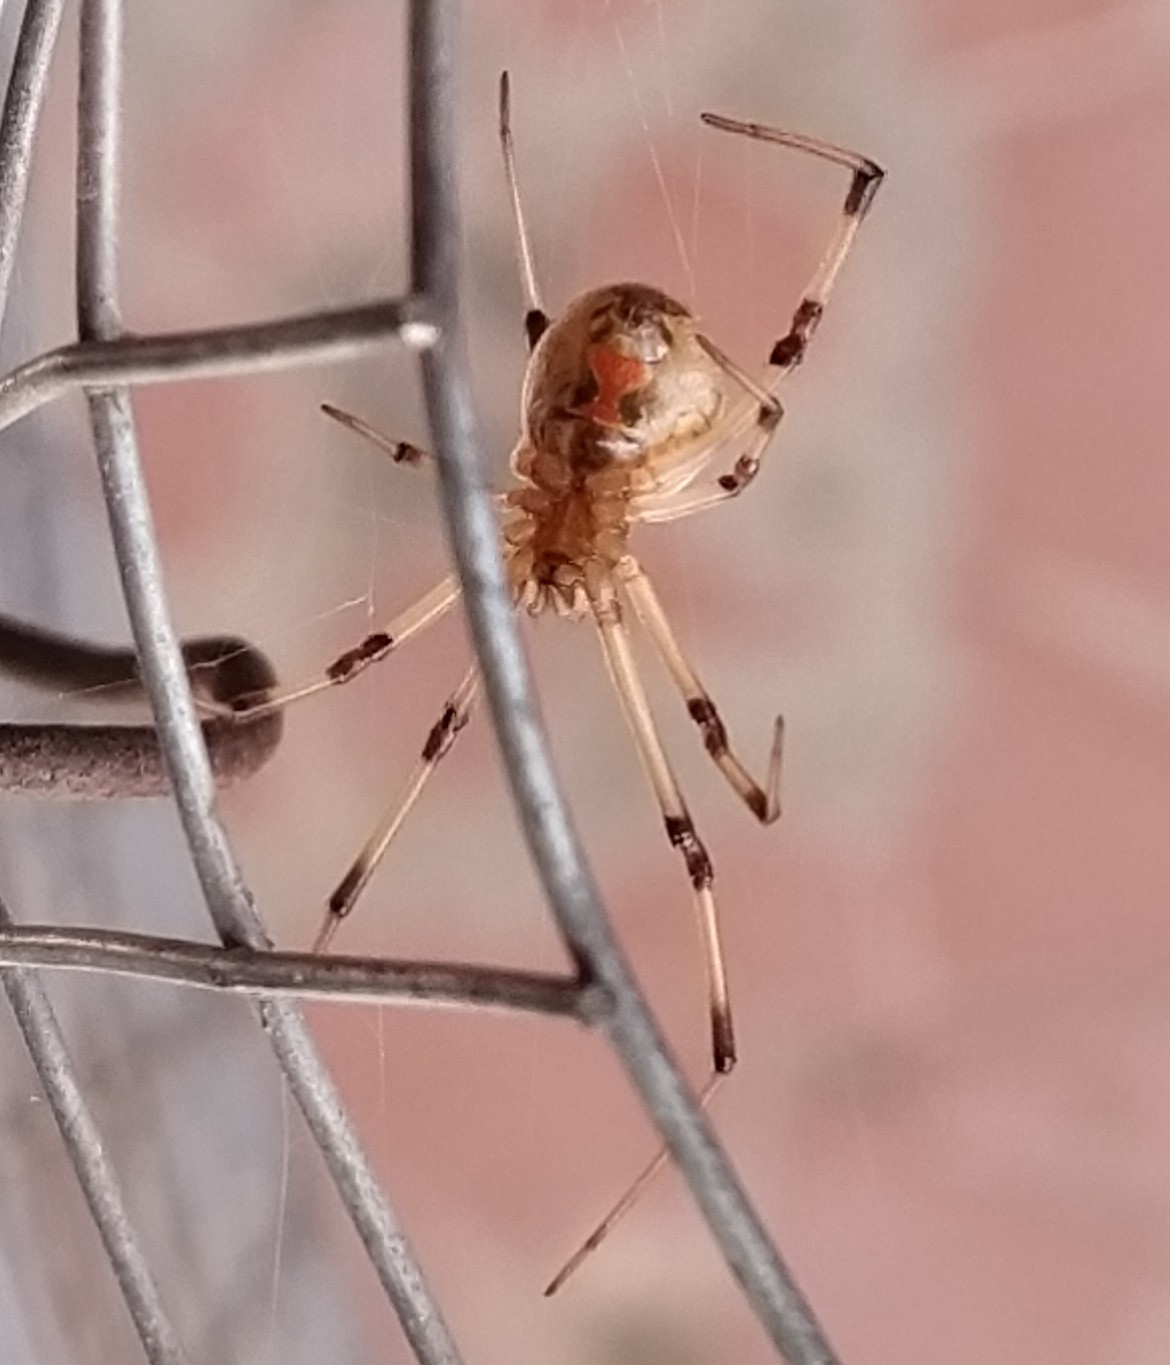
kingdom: Animalia
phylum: Arthropoda
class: Arachnida
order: Araneae
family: Theridiidae
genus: Latrodectus
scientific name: Latrodectus geometricus
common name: Brown widow spider
